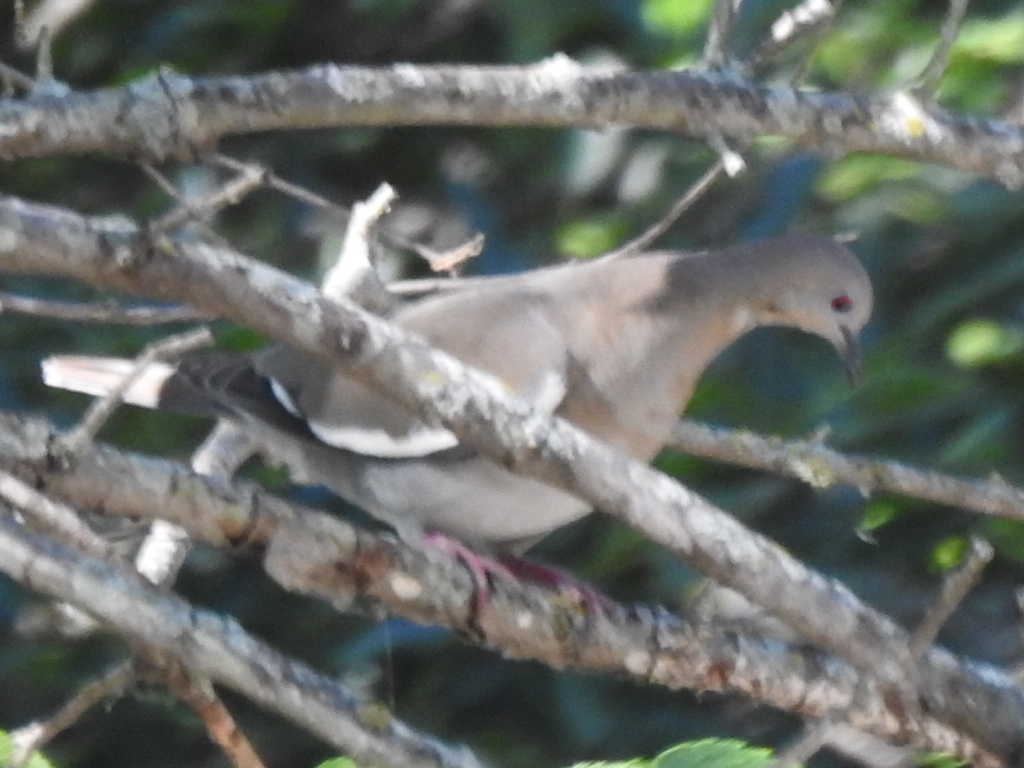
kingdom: Animalia
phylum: Chordata
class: Aves
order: Columbiformes
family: Columbidae
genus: Zenaida
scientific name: Zenaida asiatica
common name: White-winged dove
